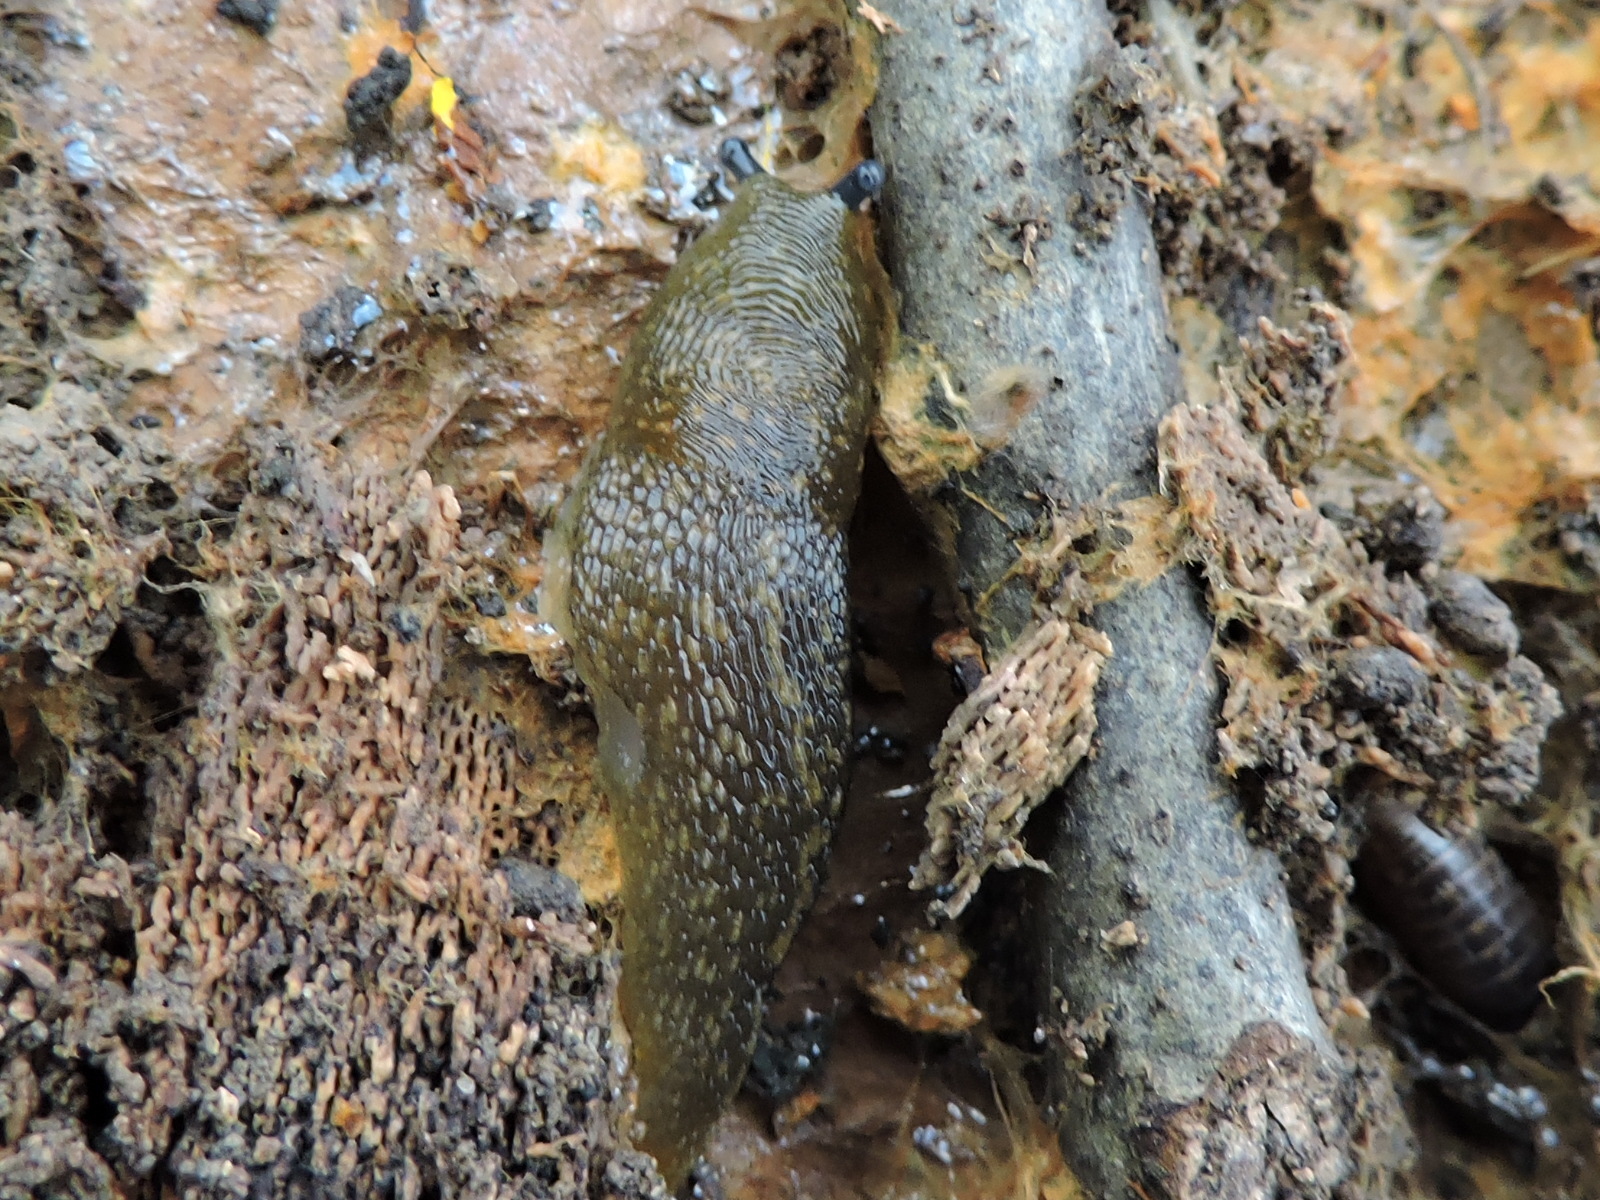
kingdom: Animalia
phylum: Mollusca
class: Gastropoda
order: Stylommatophora
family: Limacidae
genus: Limacus
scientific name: Limacus flavus
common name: Yellow gardenslug
